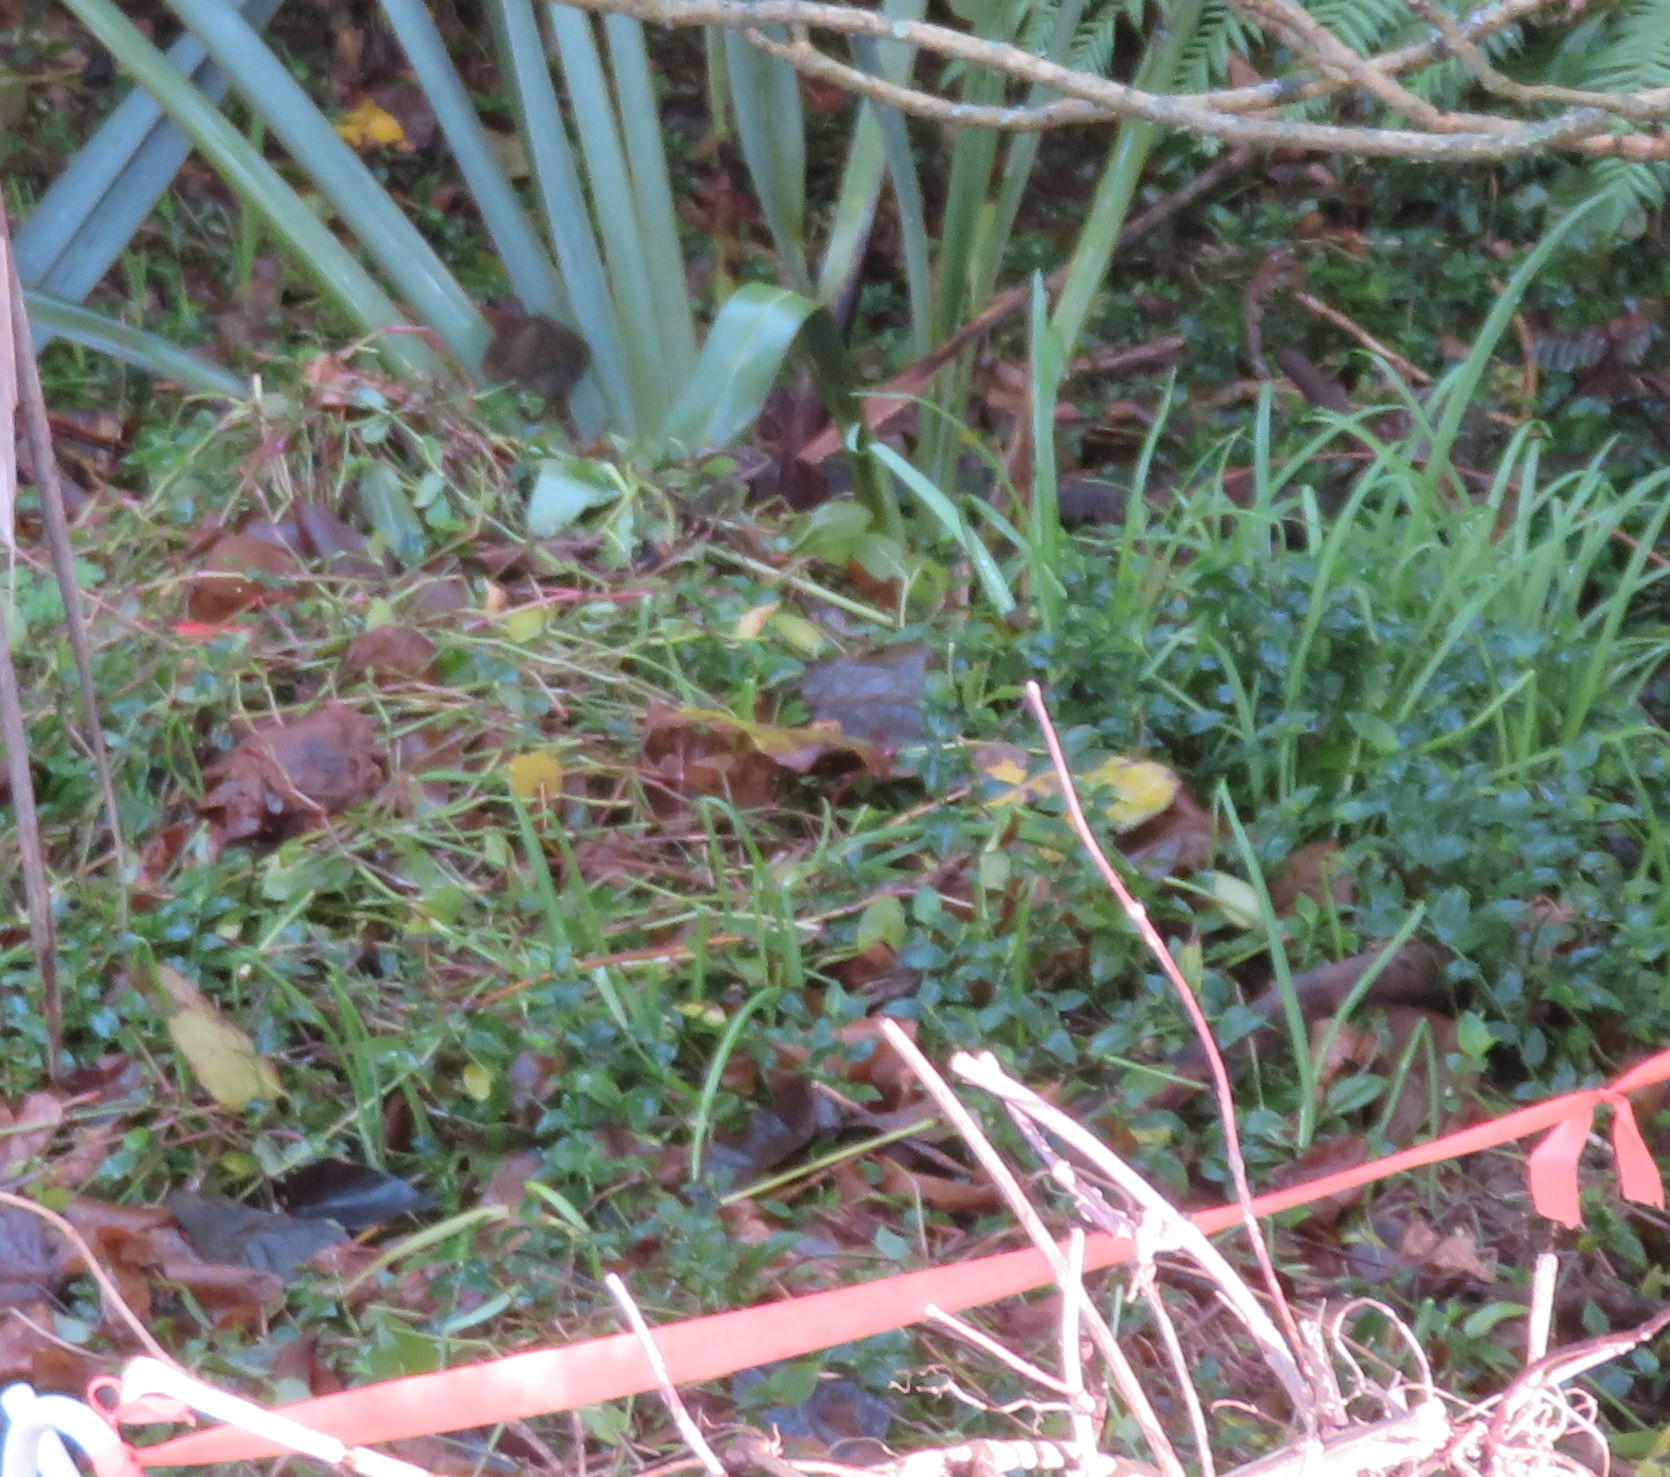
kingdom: Plantae
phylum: Tracheophyta
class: Liliopsida
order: Asparagales
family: Amaryllidaceae
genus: Allium
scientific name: Allium triquetrum
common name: Three-cornered garlic
